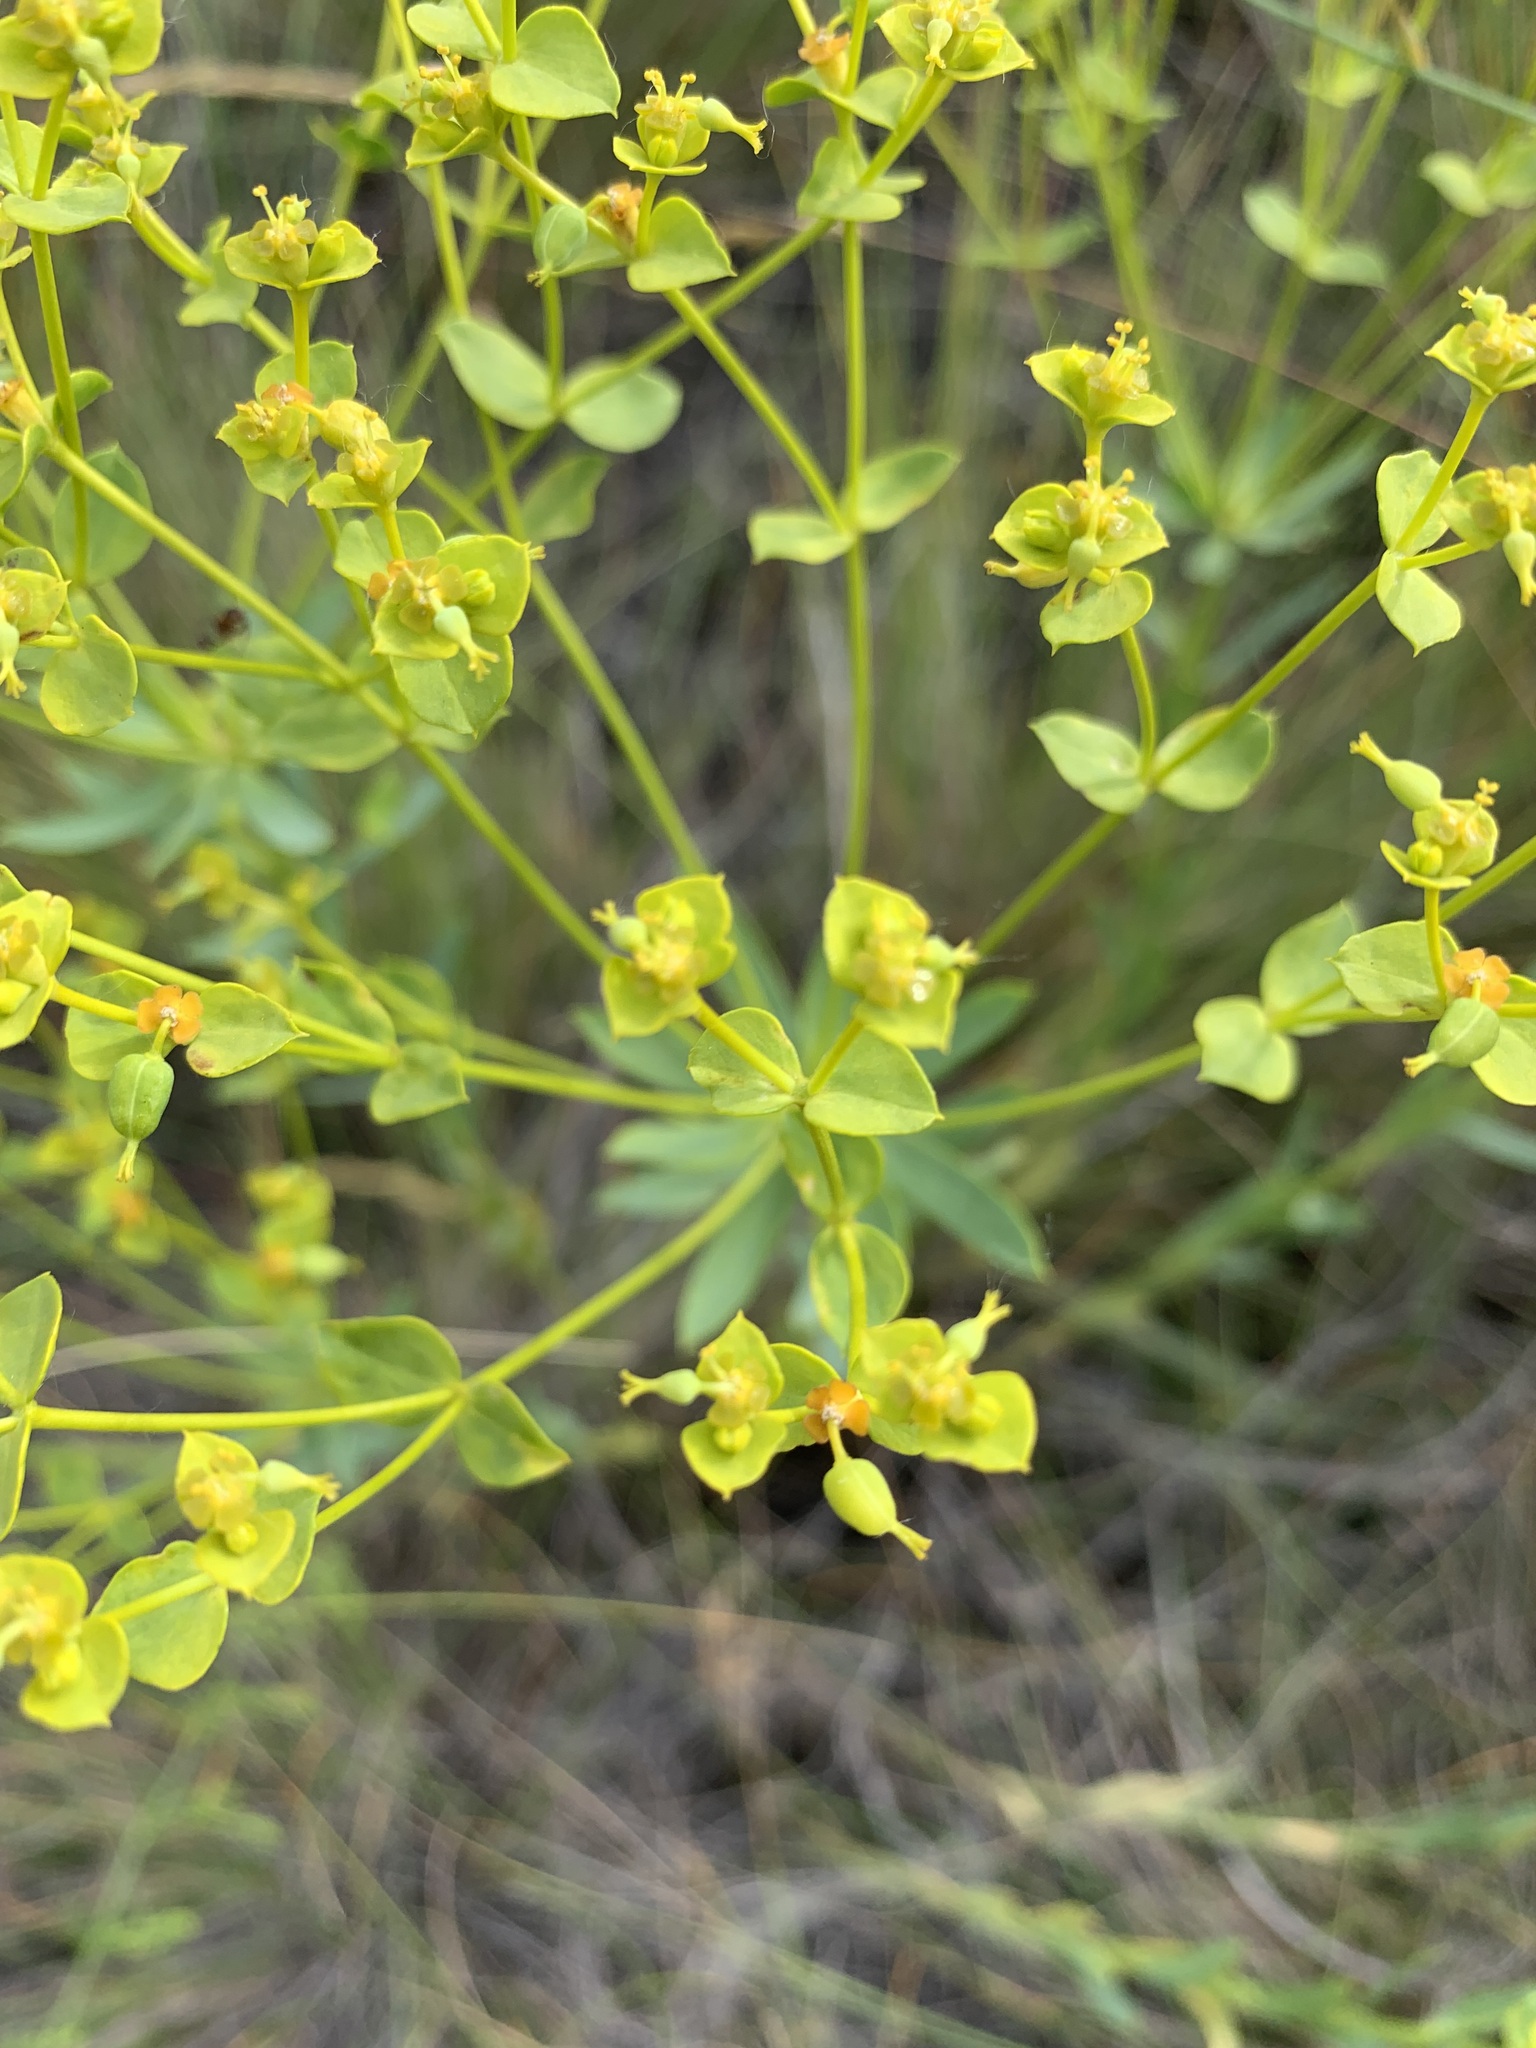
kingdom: Plantae
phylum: Tracheophyta
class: Magnoliopsida
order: Malpighiales
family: Euphorbiaceae
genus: Euphorbia
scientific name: Euphorbia seguieriana
